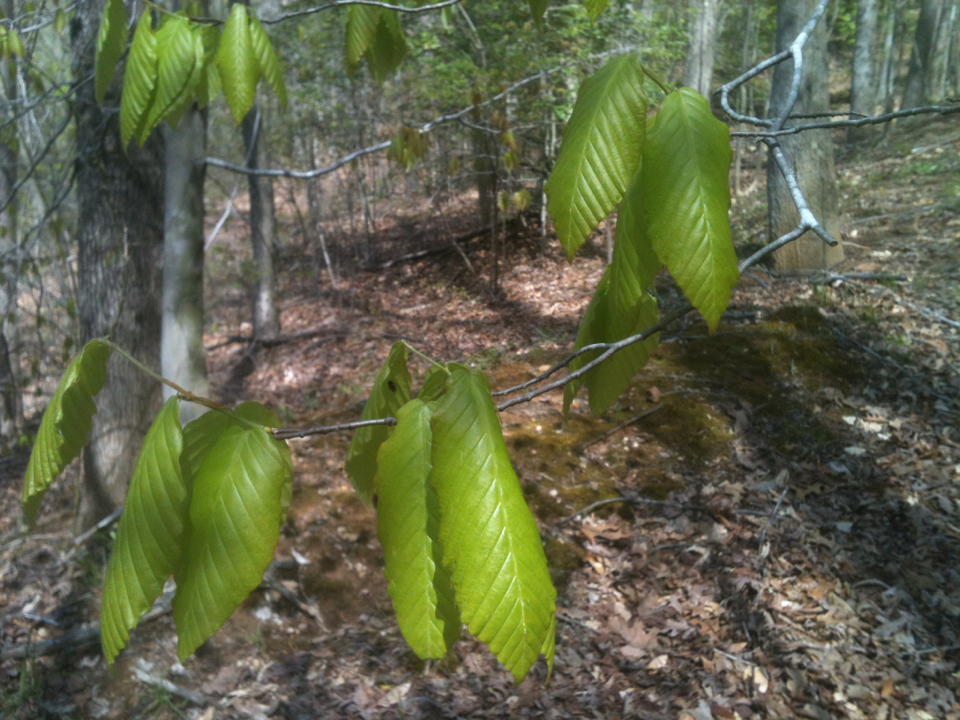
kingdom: Plantae
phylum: Tracheophyta
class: Magnoliopsida
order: Fagales
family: Fagaceae
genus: Fagus
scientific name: Fagus grandifolia
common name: American beech
